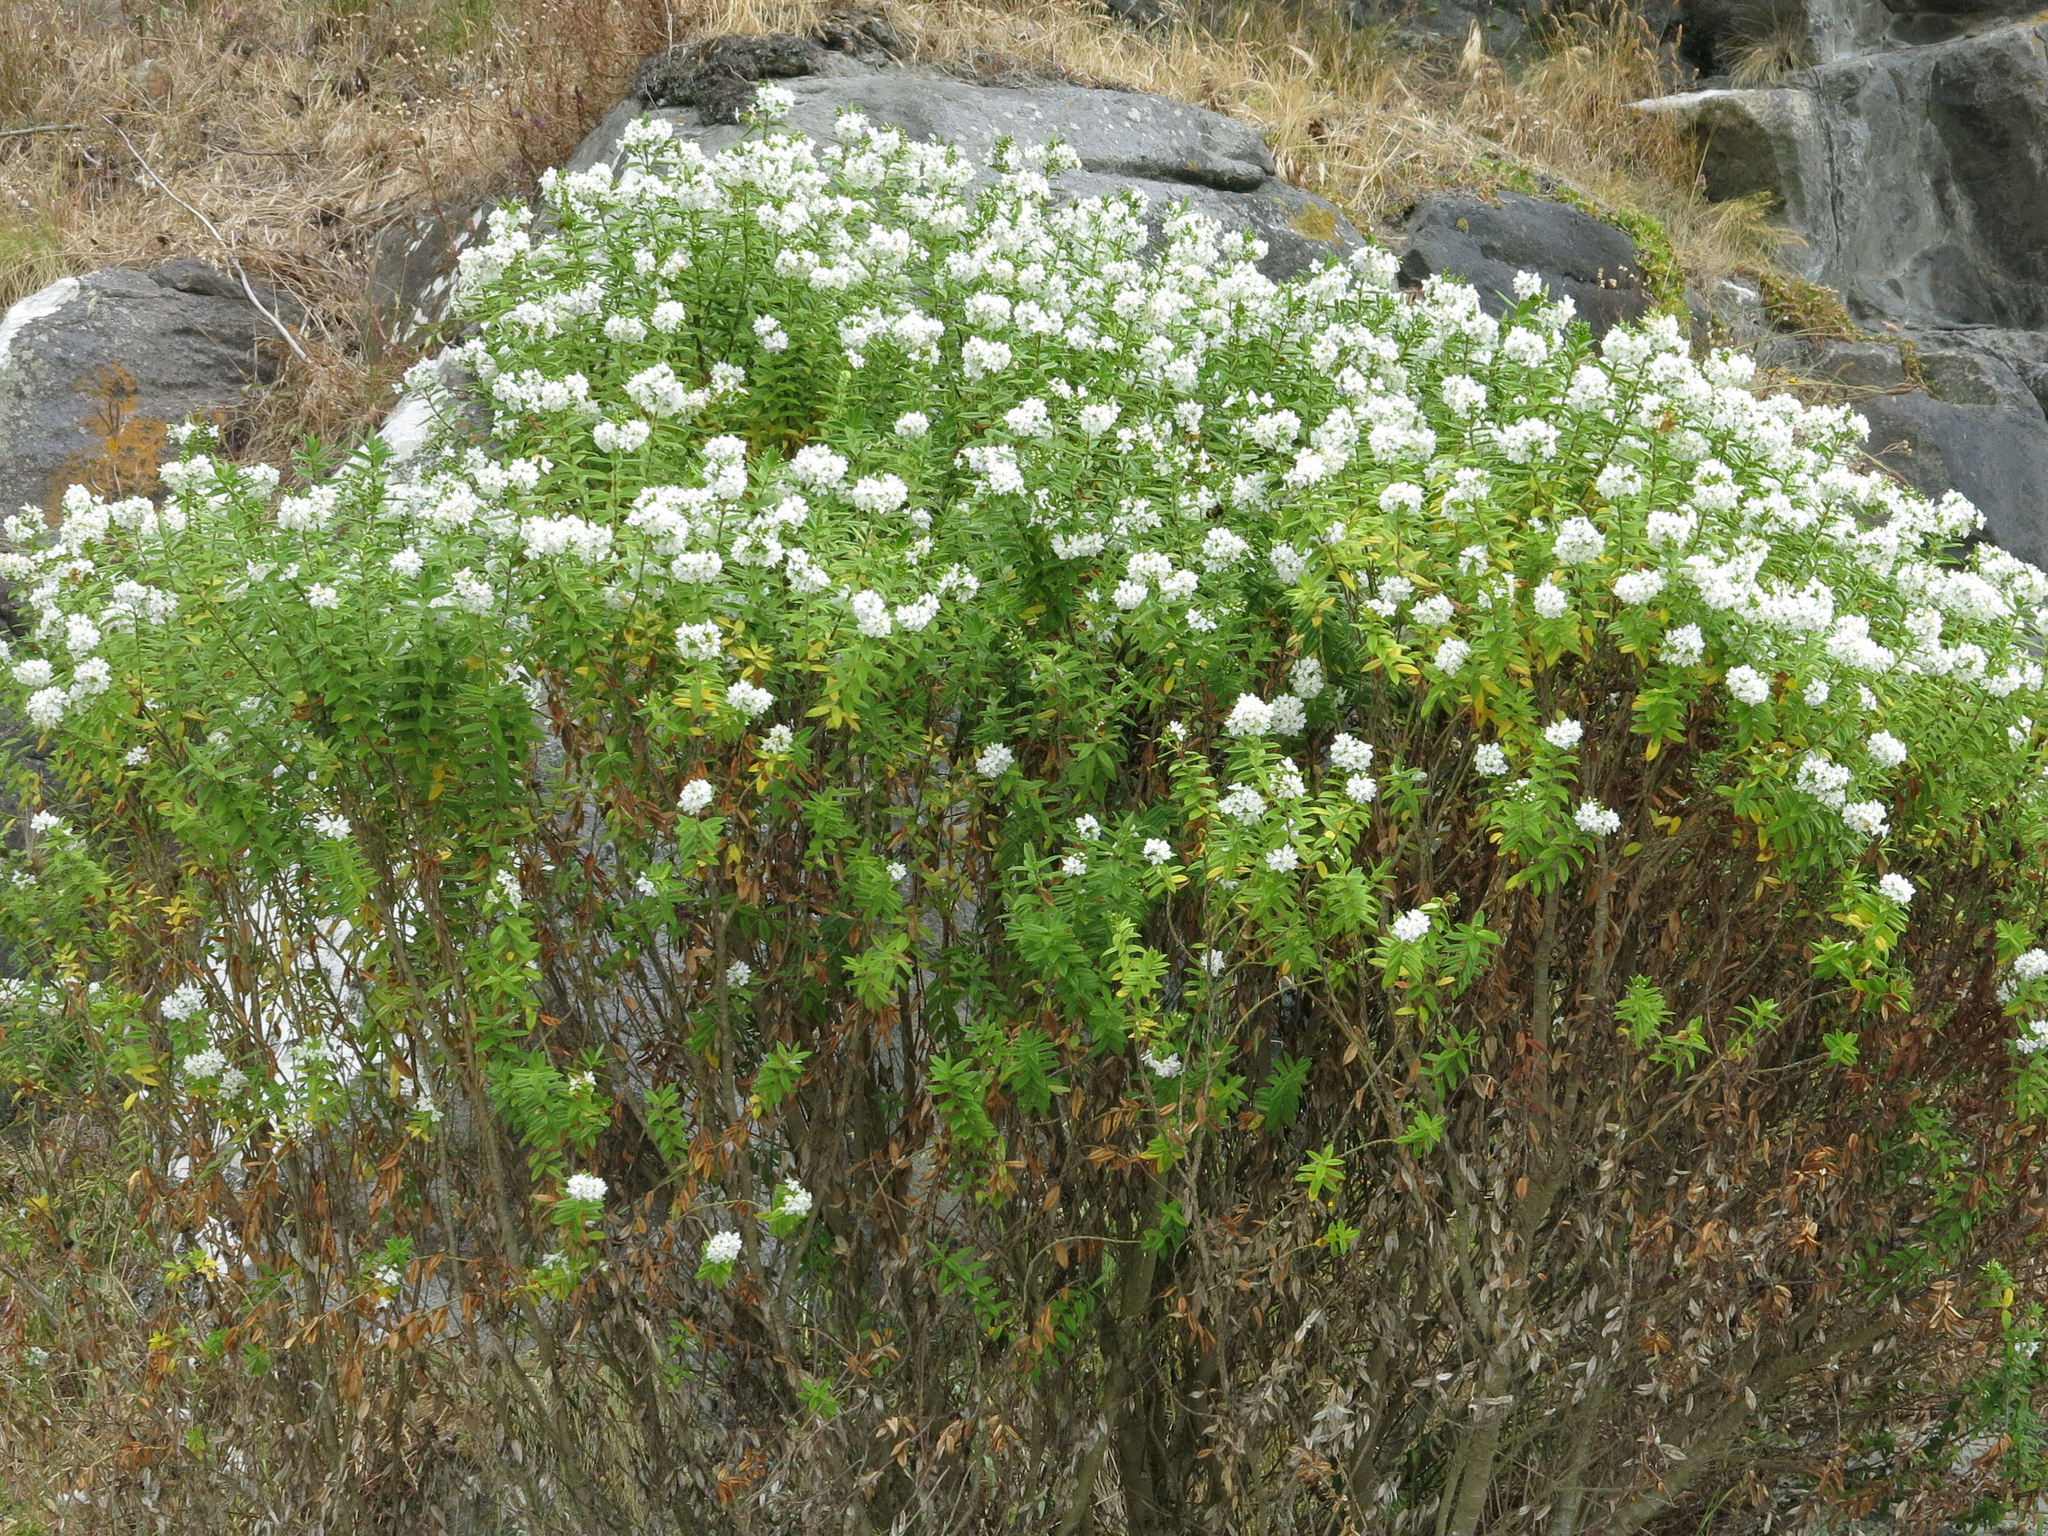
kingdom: Plantae
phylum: Tracheophyta
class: Magnoliopsida
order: Lamiales
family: Plantaginaceae
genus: Veronica
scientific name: Veronica elliptica
